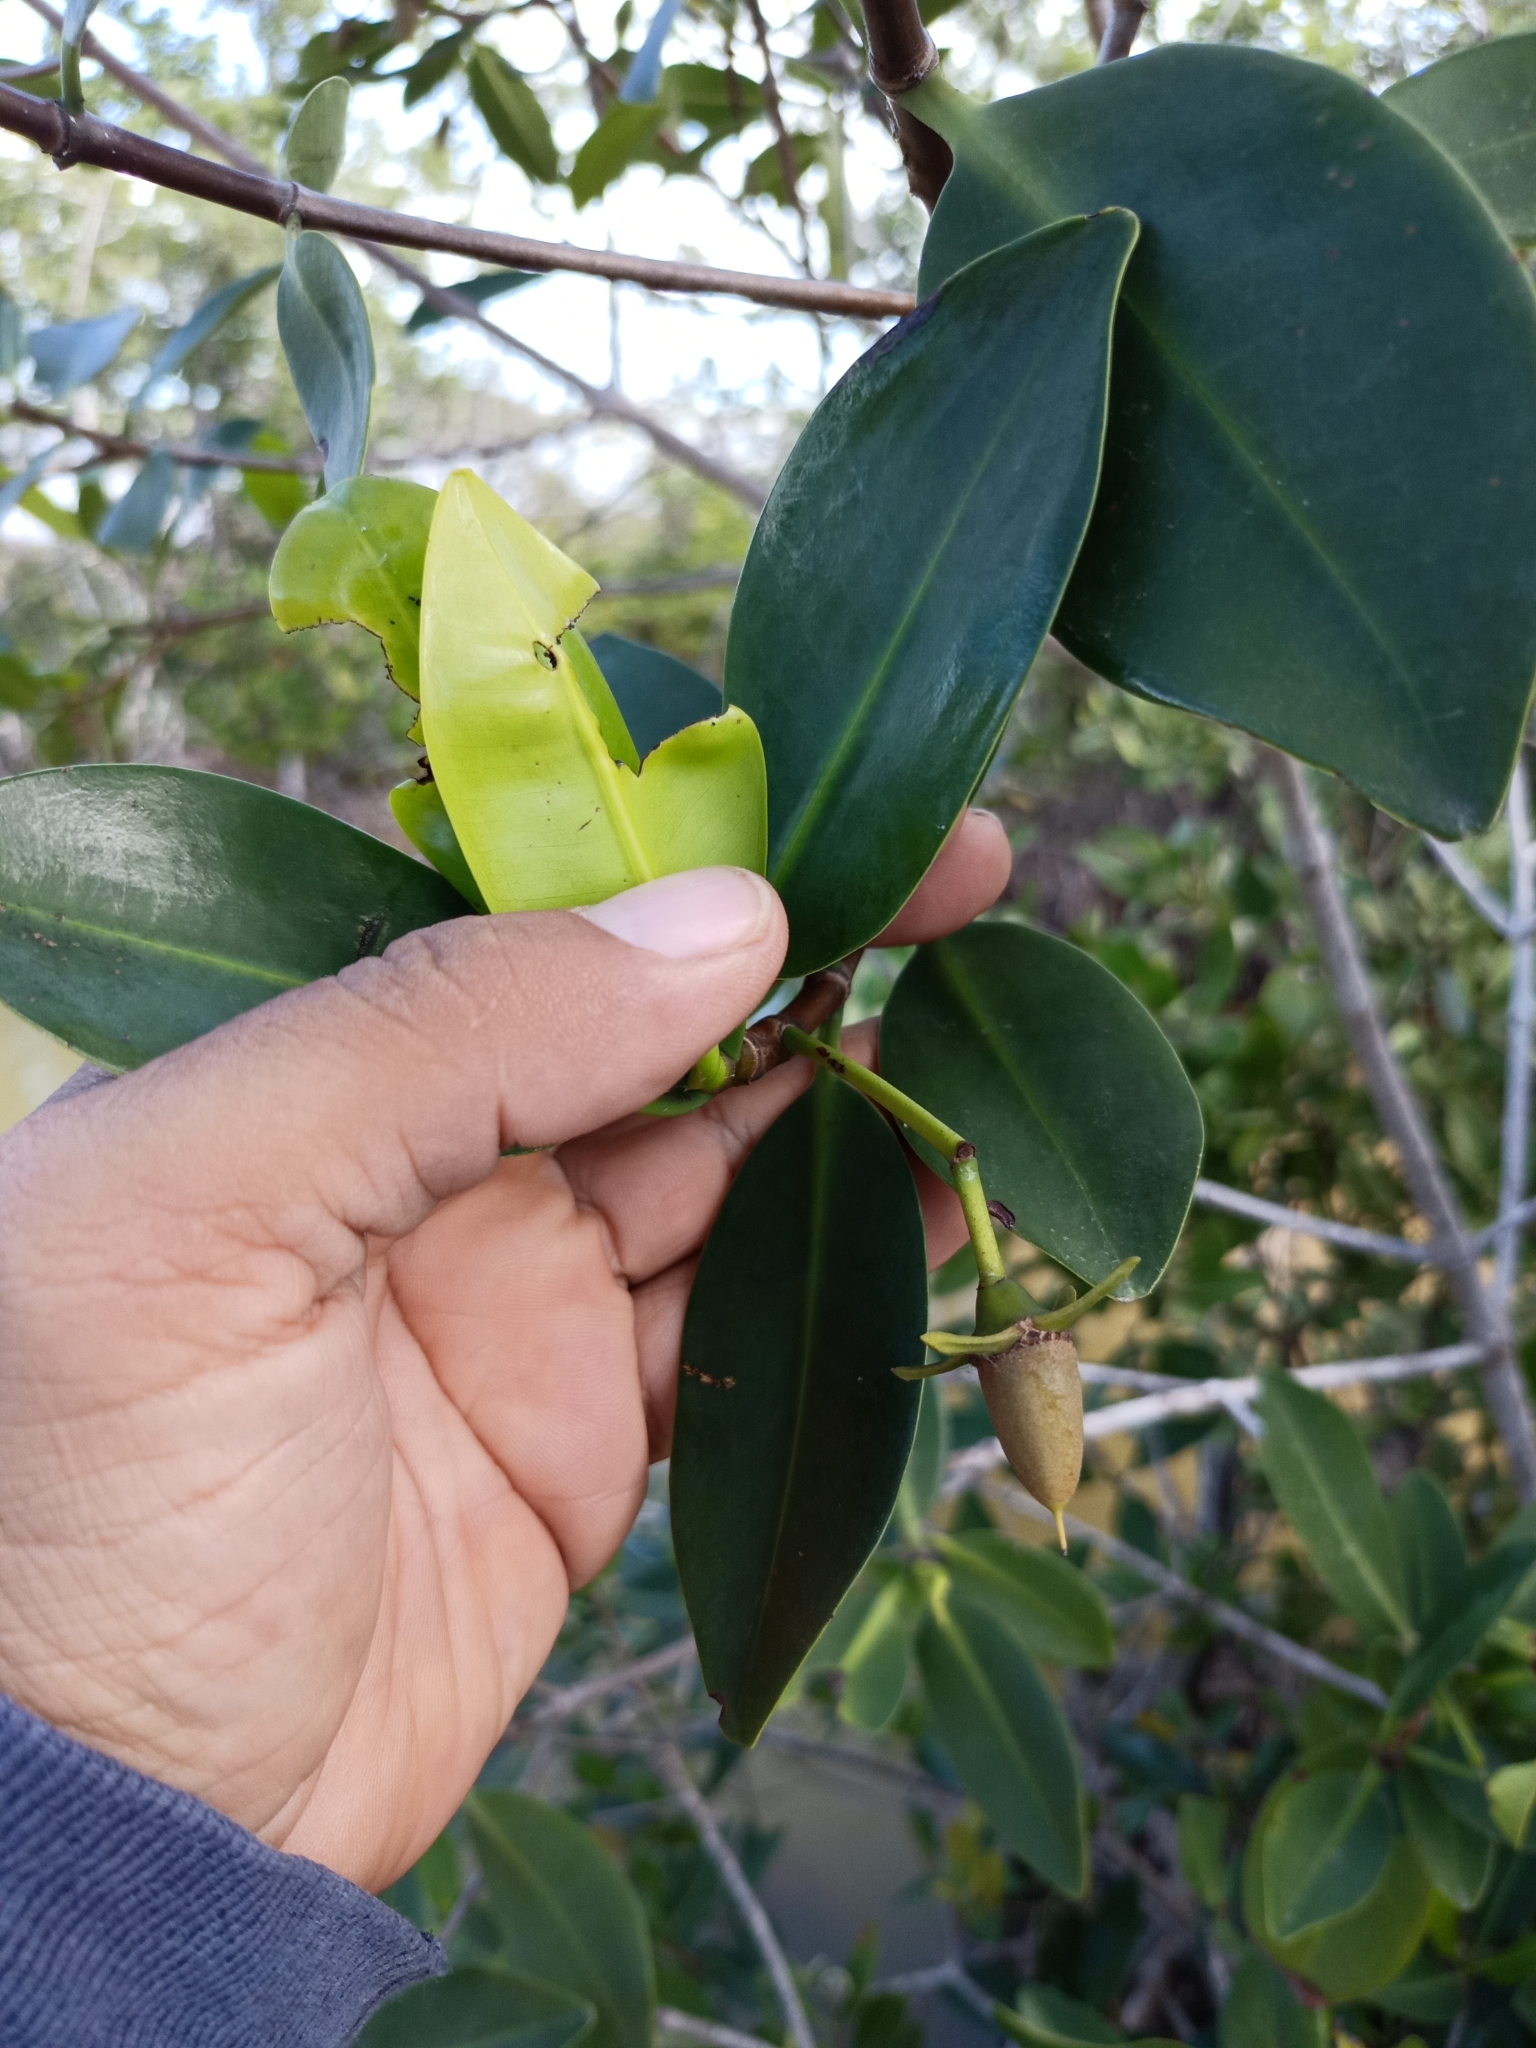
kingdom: Plantae
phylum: Tracheophyta
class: Magnoliopsida
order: Malpighiales
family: Rhizophoraceae
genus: Rhizophora
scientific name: Rhizophora mangle
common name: Red mangrove
